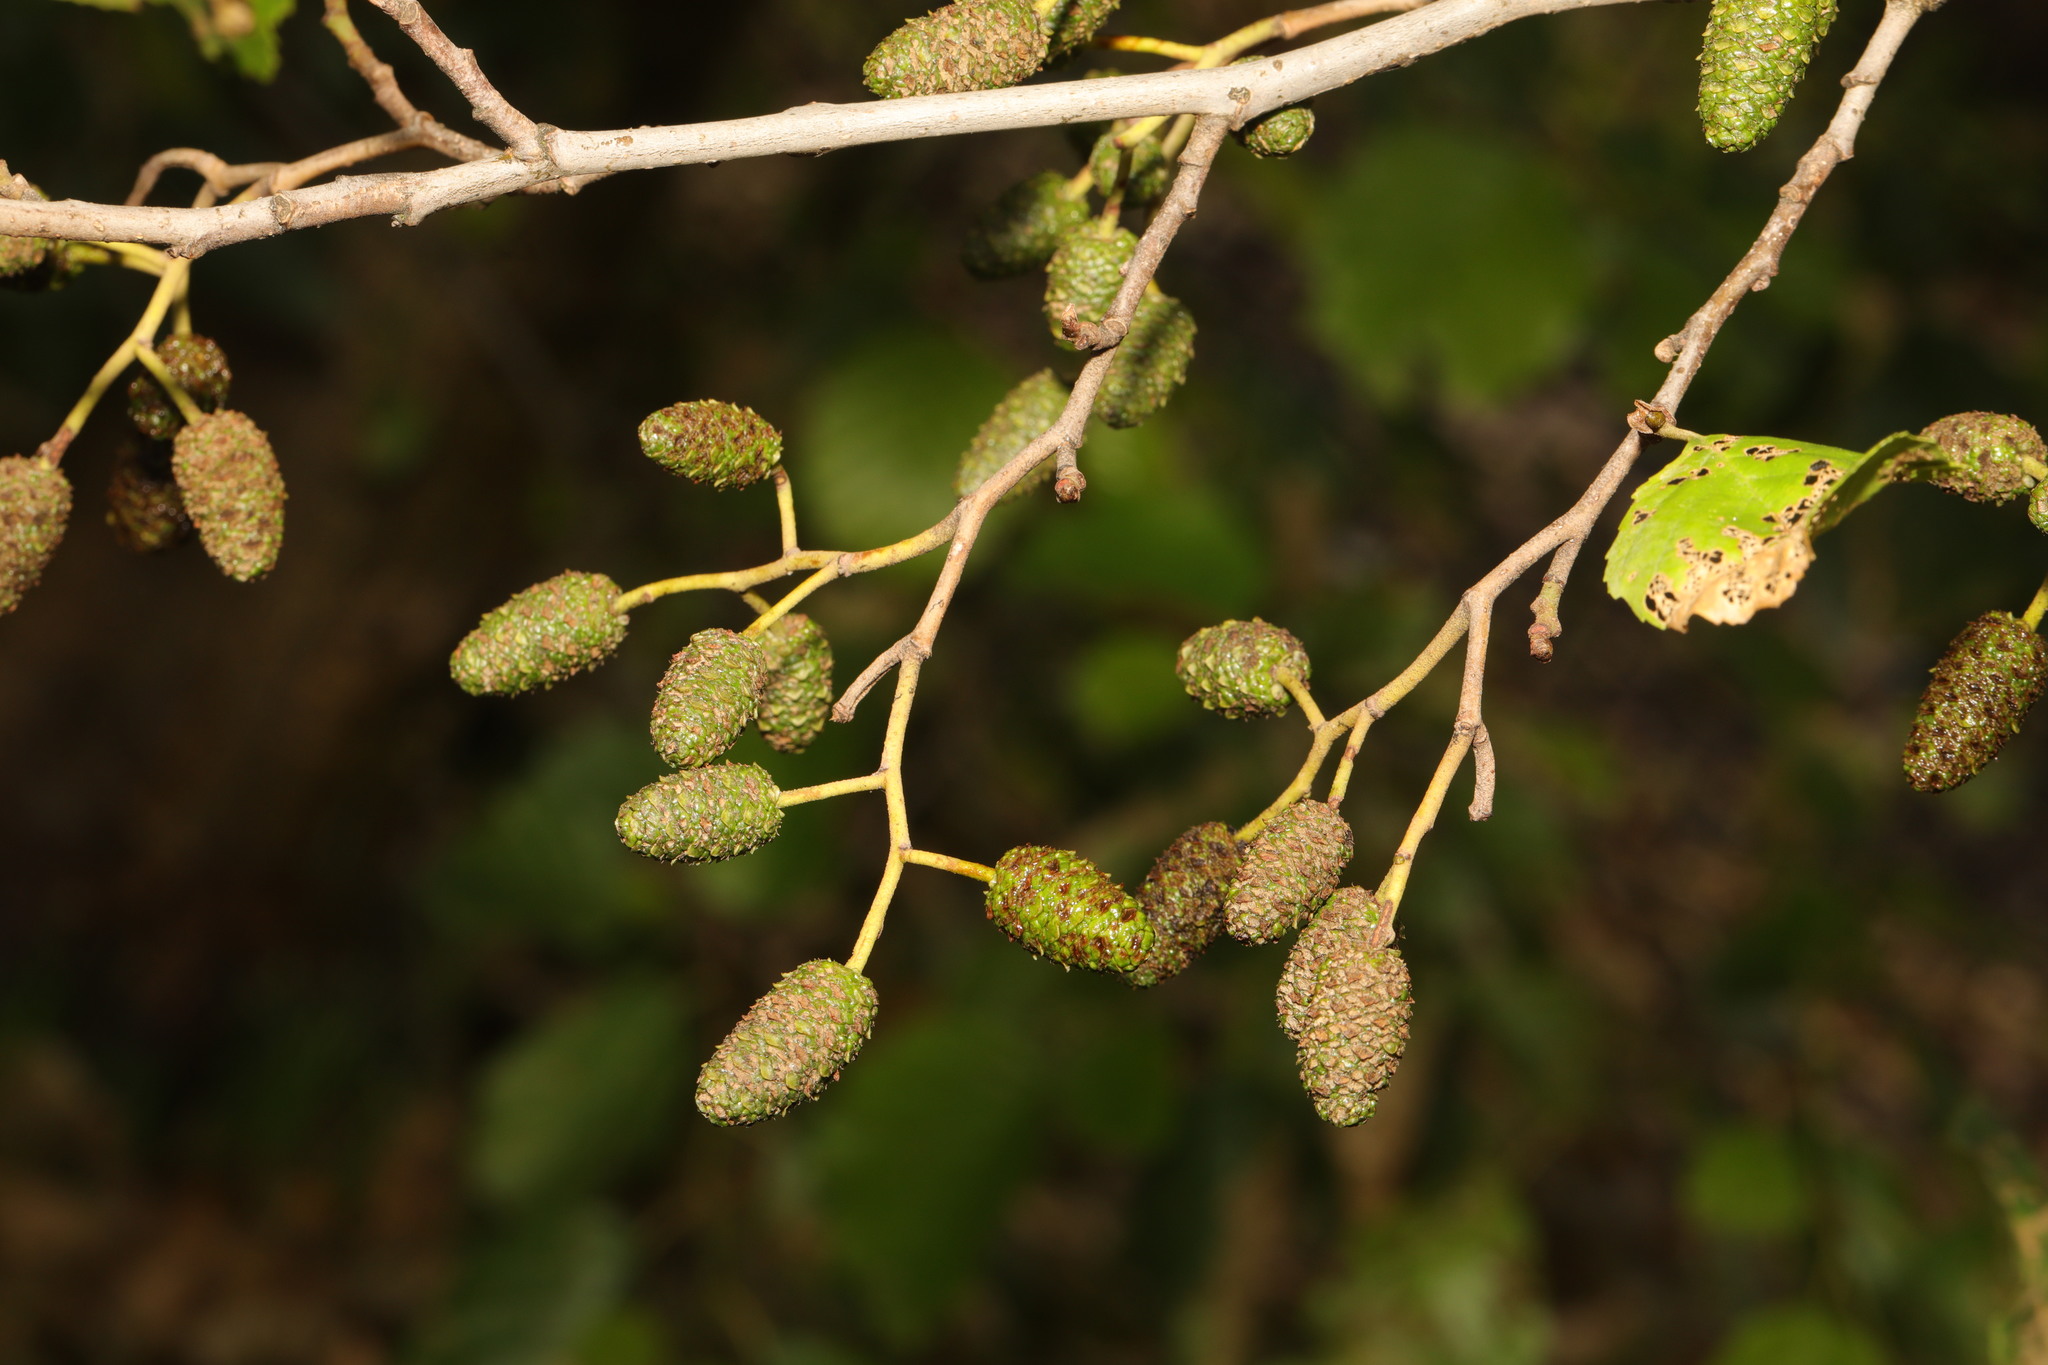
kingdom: Plantae
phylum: Tracheophyta
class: Magnoliopsida
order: Fagales
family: Betulaceae
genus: Alnus
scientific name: Alnus glutinosa
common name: Black alder
